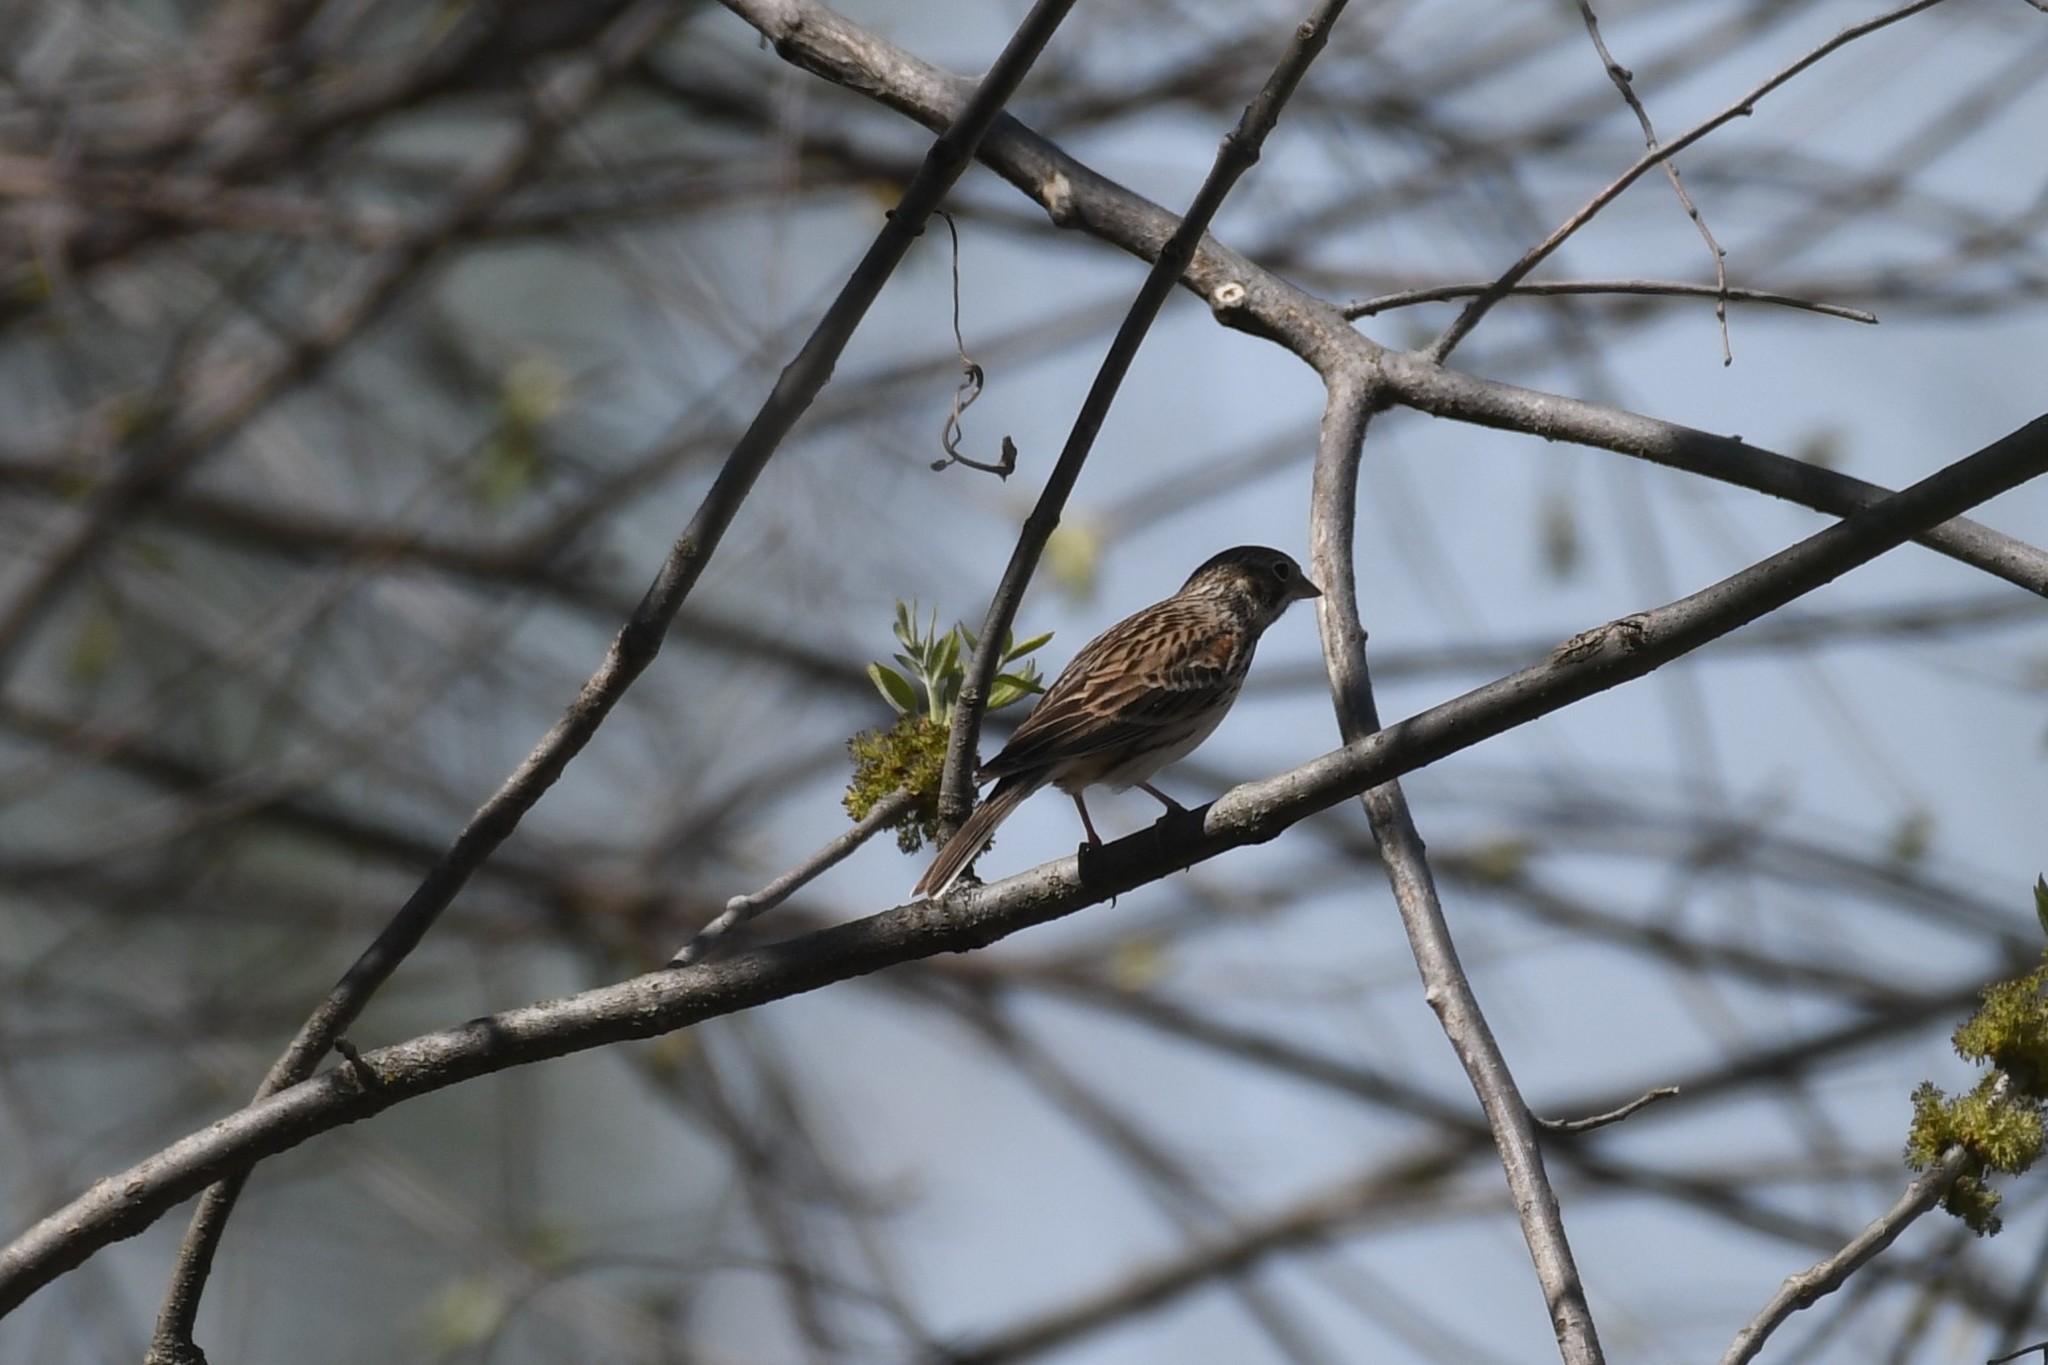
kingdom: Animalia
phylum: Chordata
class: Aves
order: Passeriformes
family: Passerellidae
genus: Pooecetes
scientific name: Pooecetes gramineus
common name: Vesper sparrow
